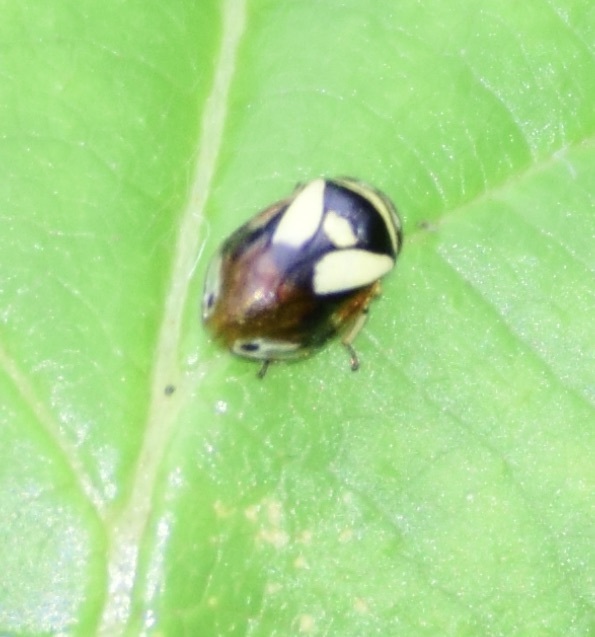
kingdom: Animalia
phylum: Arthropoda
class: Insecta
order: Hemiptera
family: Clastopteridae
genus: Clastoptera
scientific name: Clastoptera proteus
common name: Dogwood spittlebug
